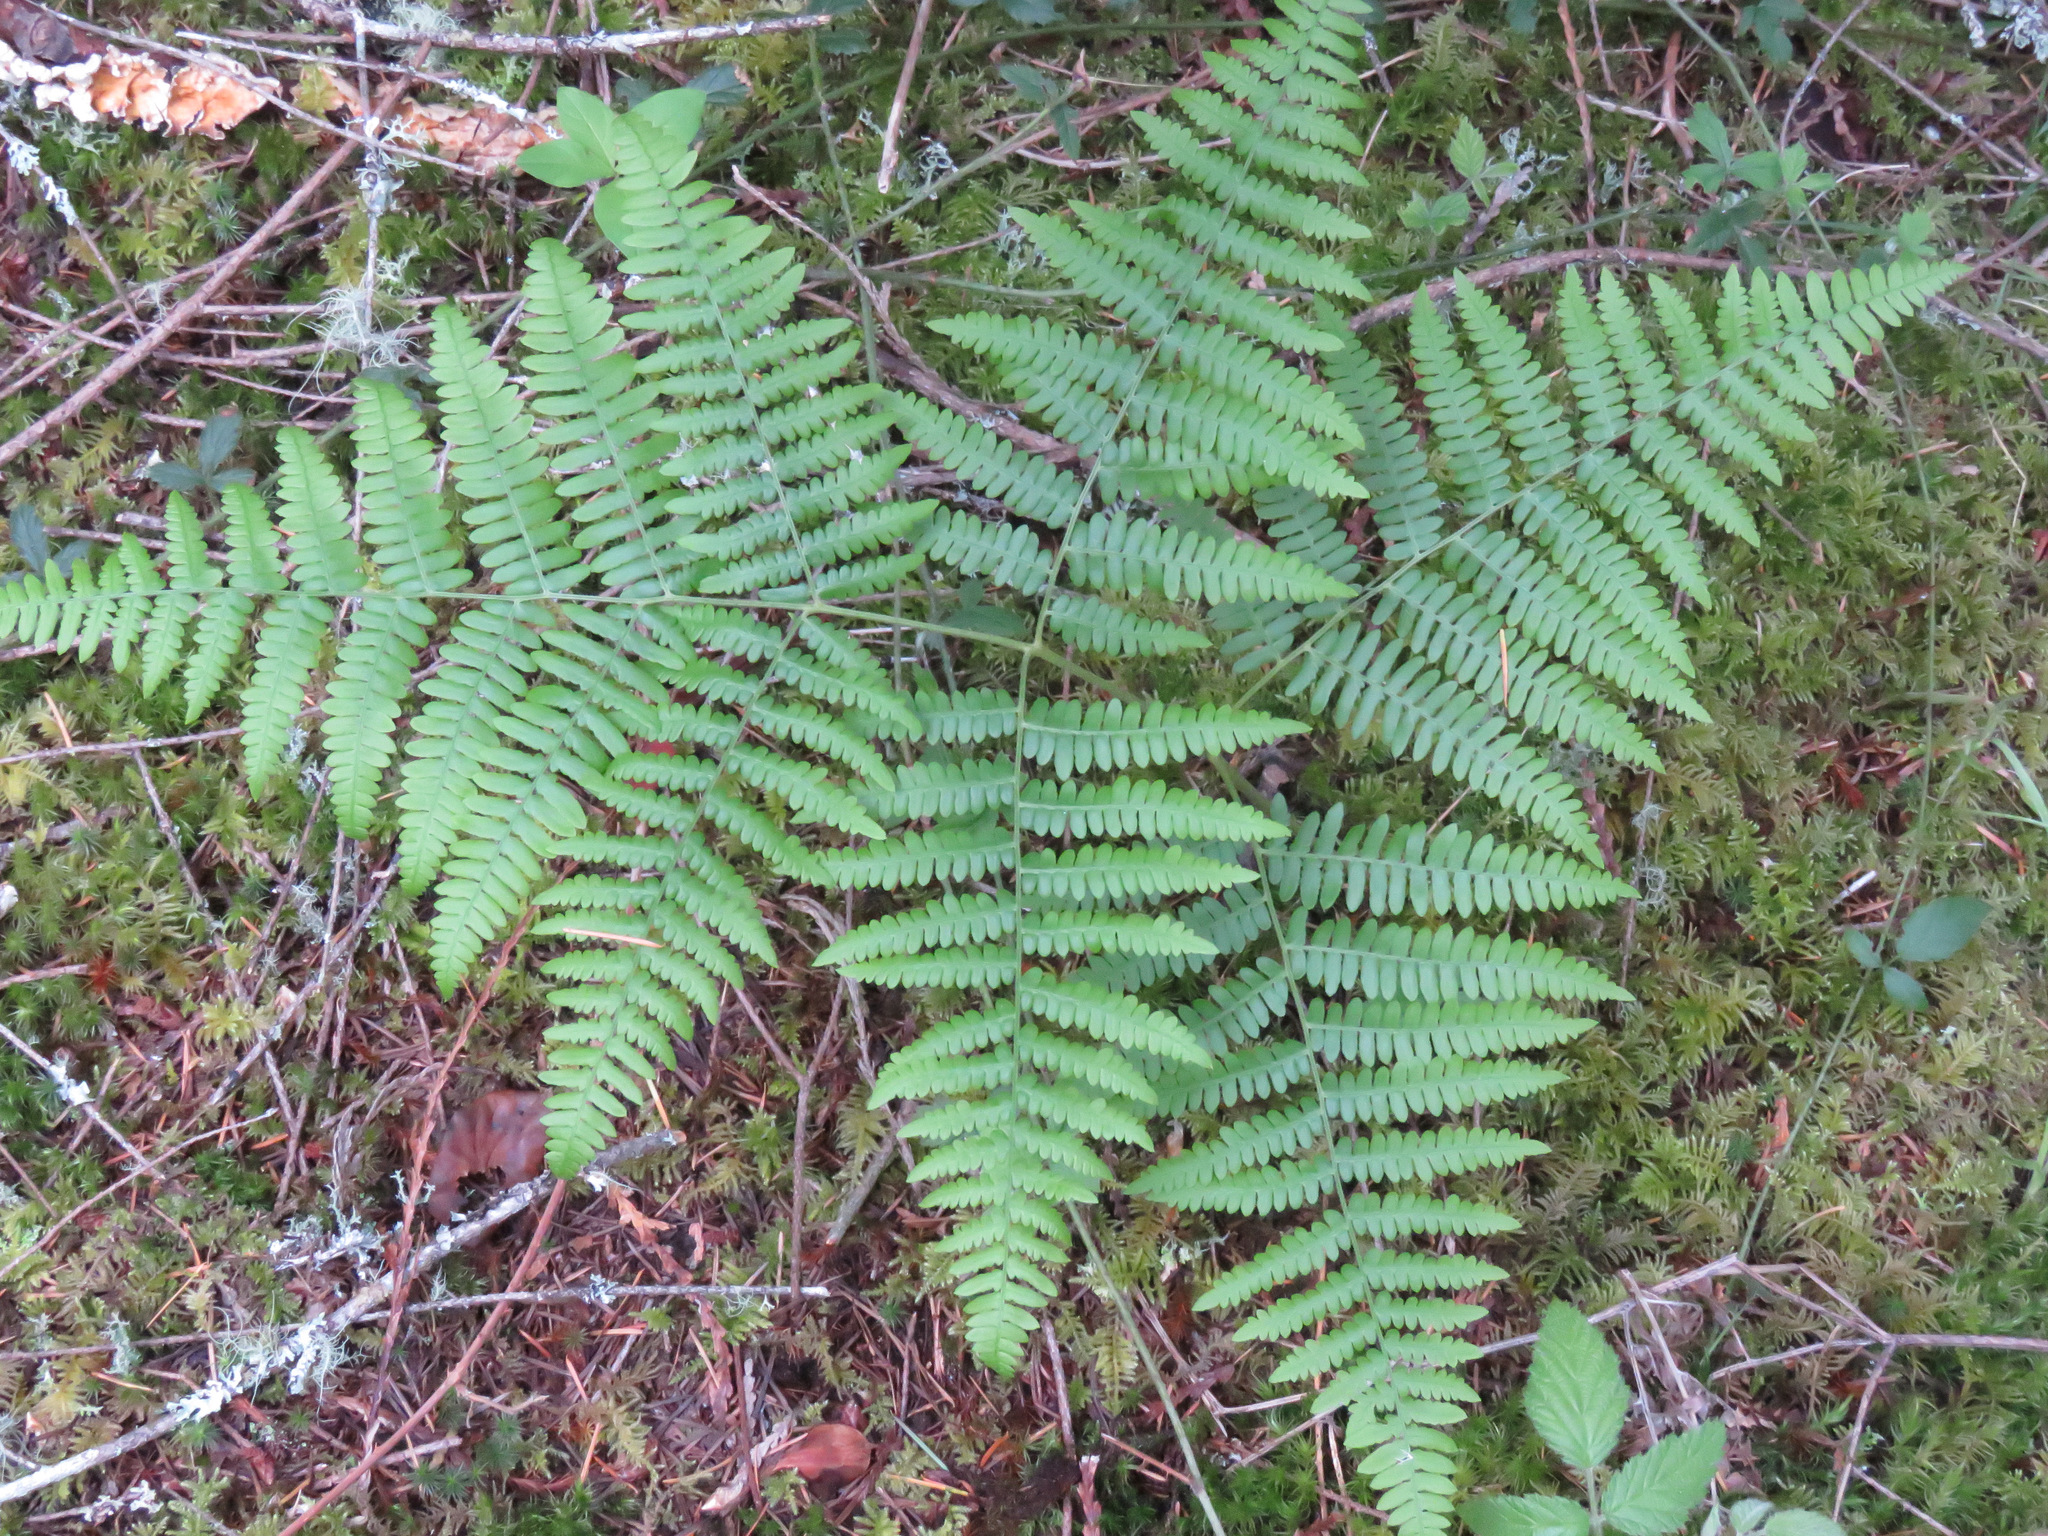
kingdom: Plantae
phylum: Tracheophyta
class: Polypodiopsida
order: Polypodiales
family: Dennstaedtiaceae
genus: Pteridium
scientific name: Pteridium aquilinum
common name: Bracken
